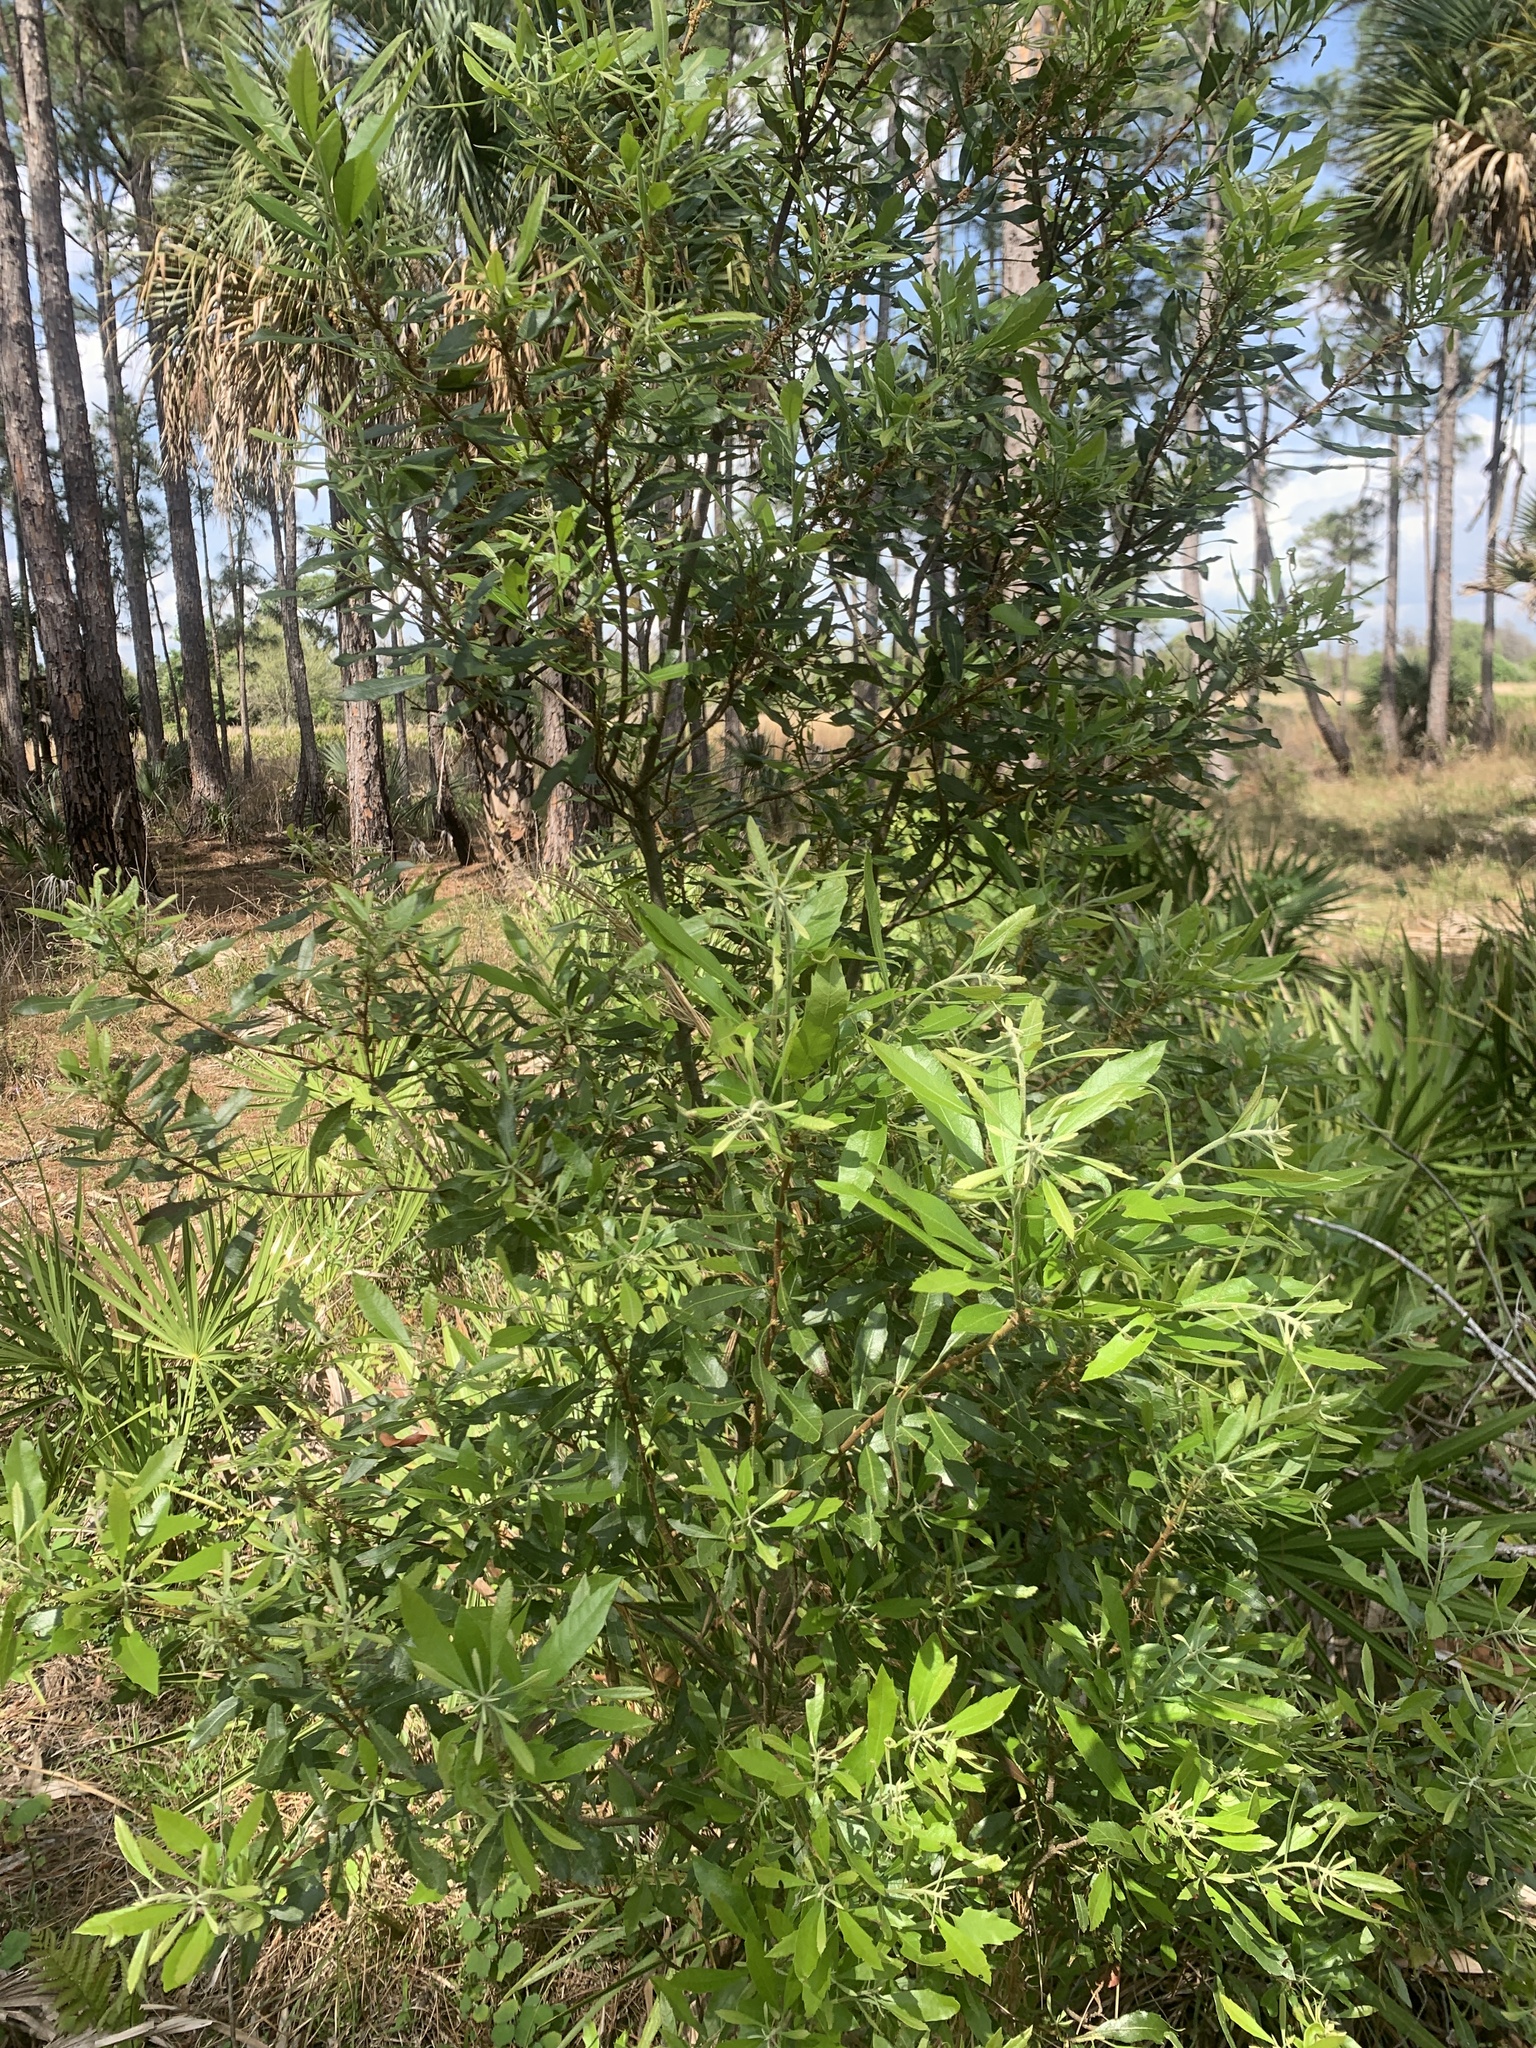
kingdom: Plantae
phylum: Tracheophyta
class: Magnoliopsida
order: Fagales
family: Myricaceae
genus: Morella
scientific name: Morella cerifera
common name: Wax myrtle
